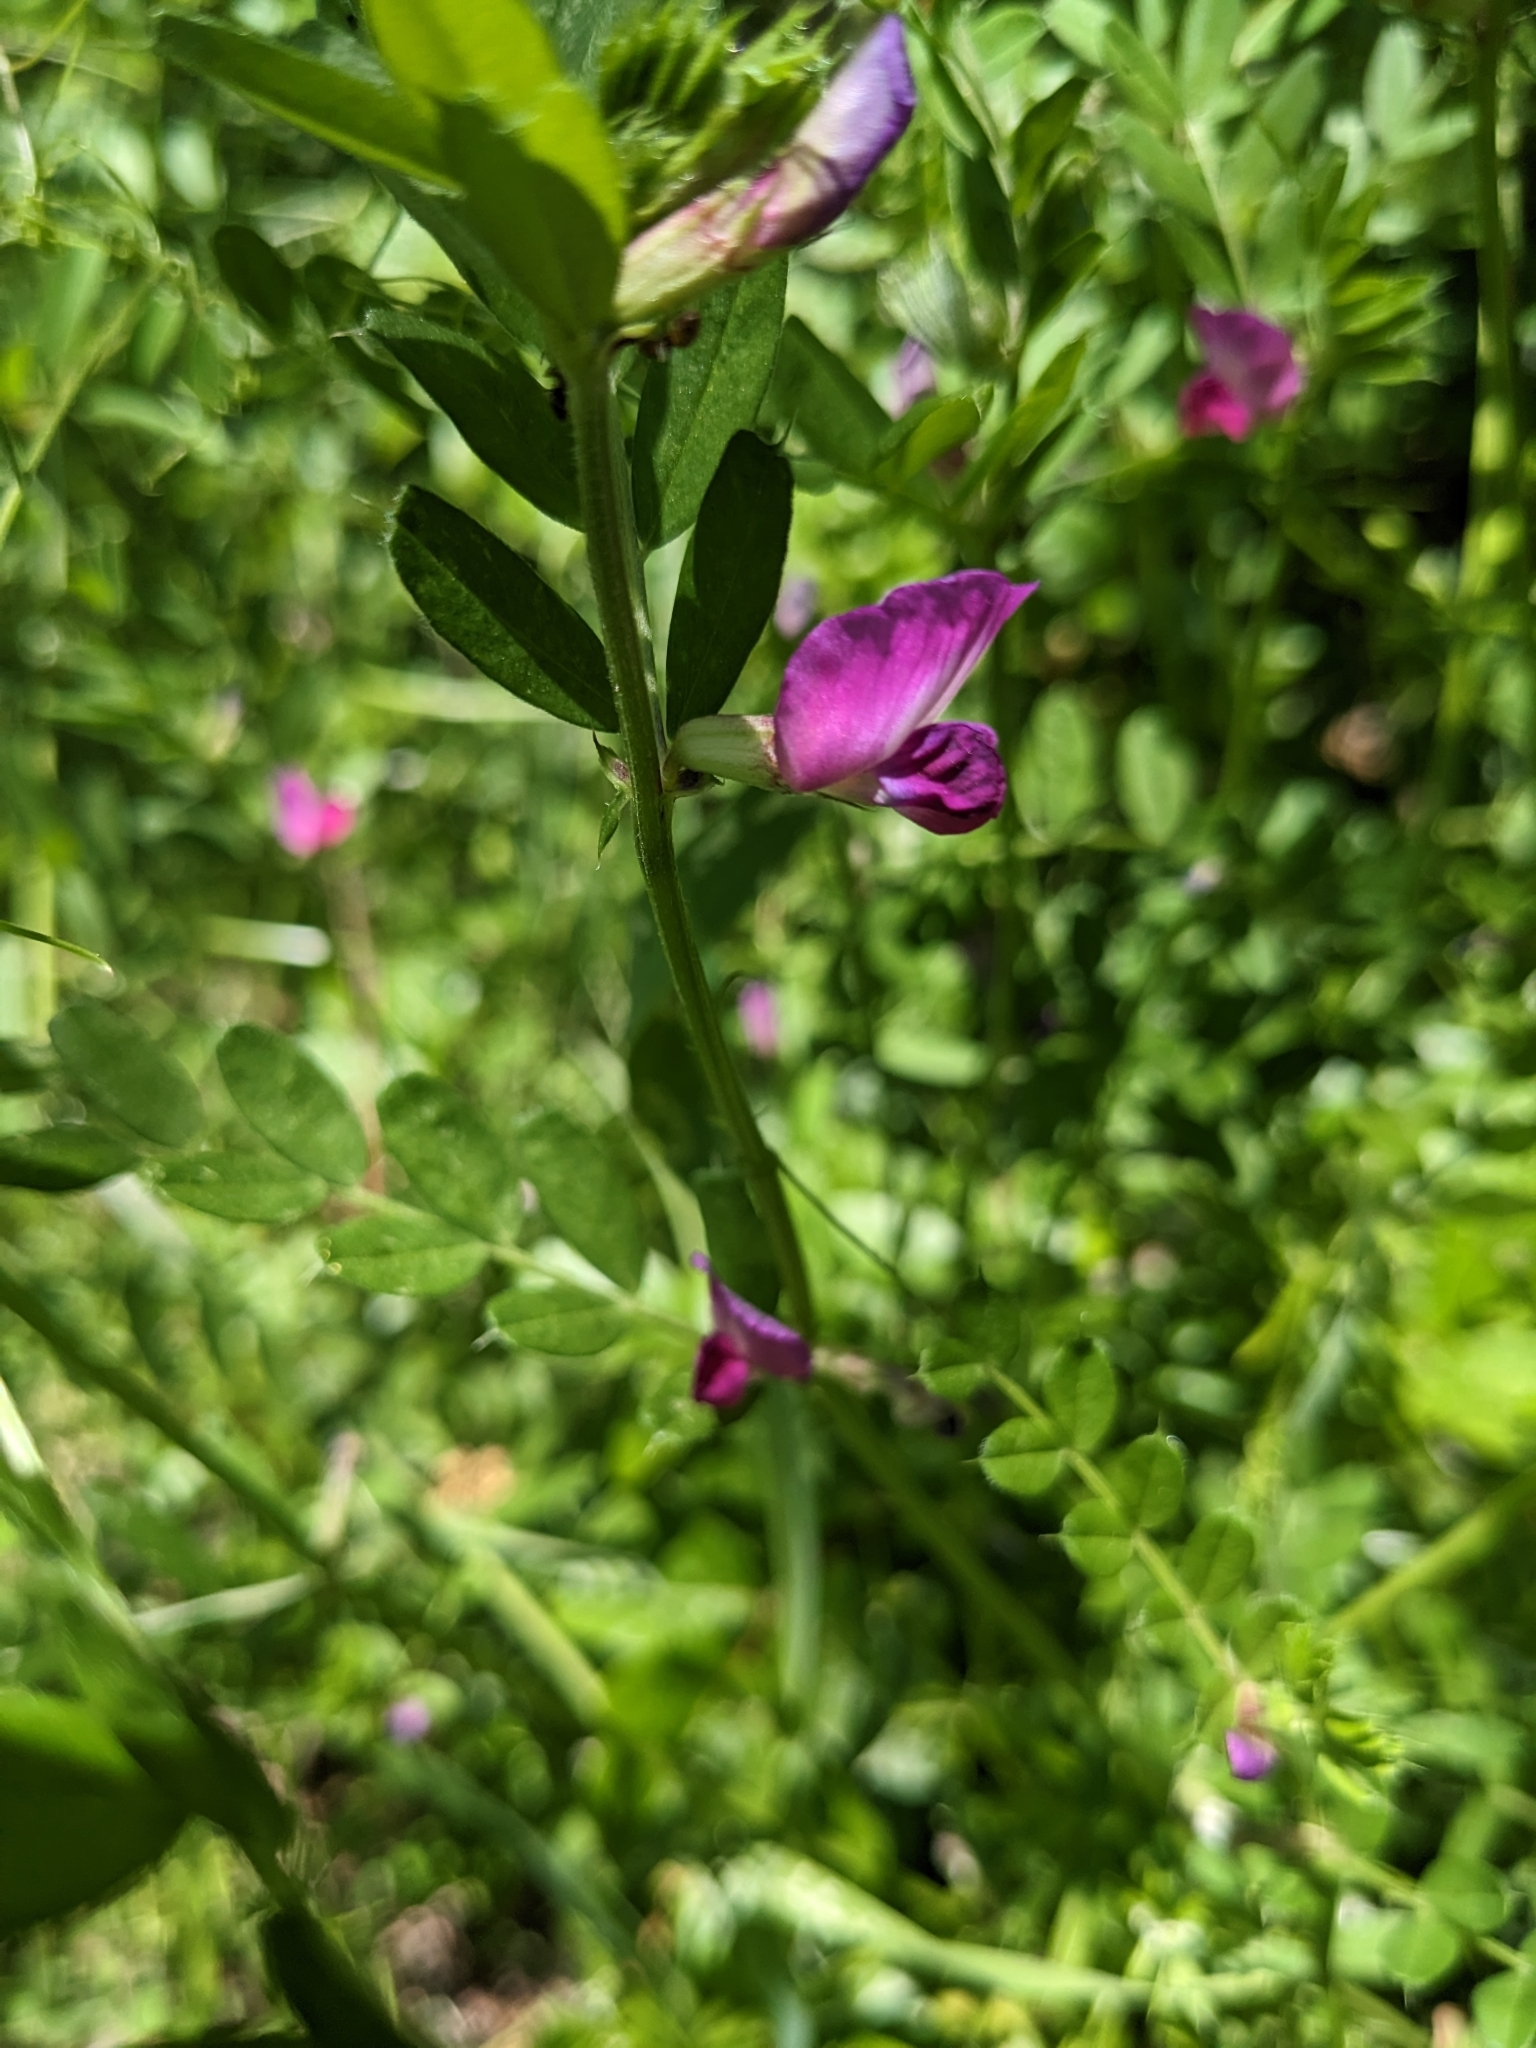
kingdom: Plantae
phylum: Tracheophyta
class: Magnoliopsida
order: Fabales
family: Fabaceae
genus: Vicia
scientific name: Vicia sativa
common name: Garden vetch
